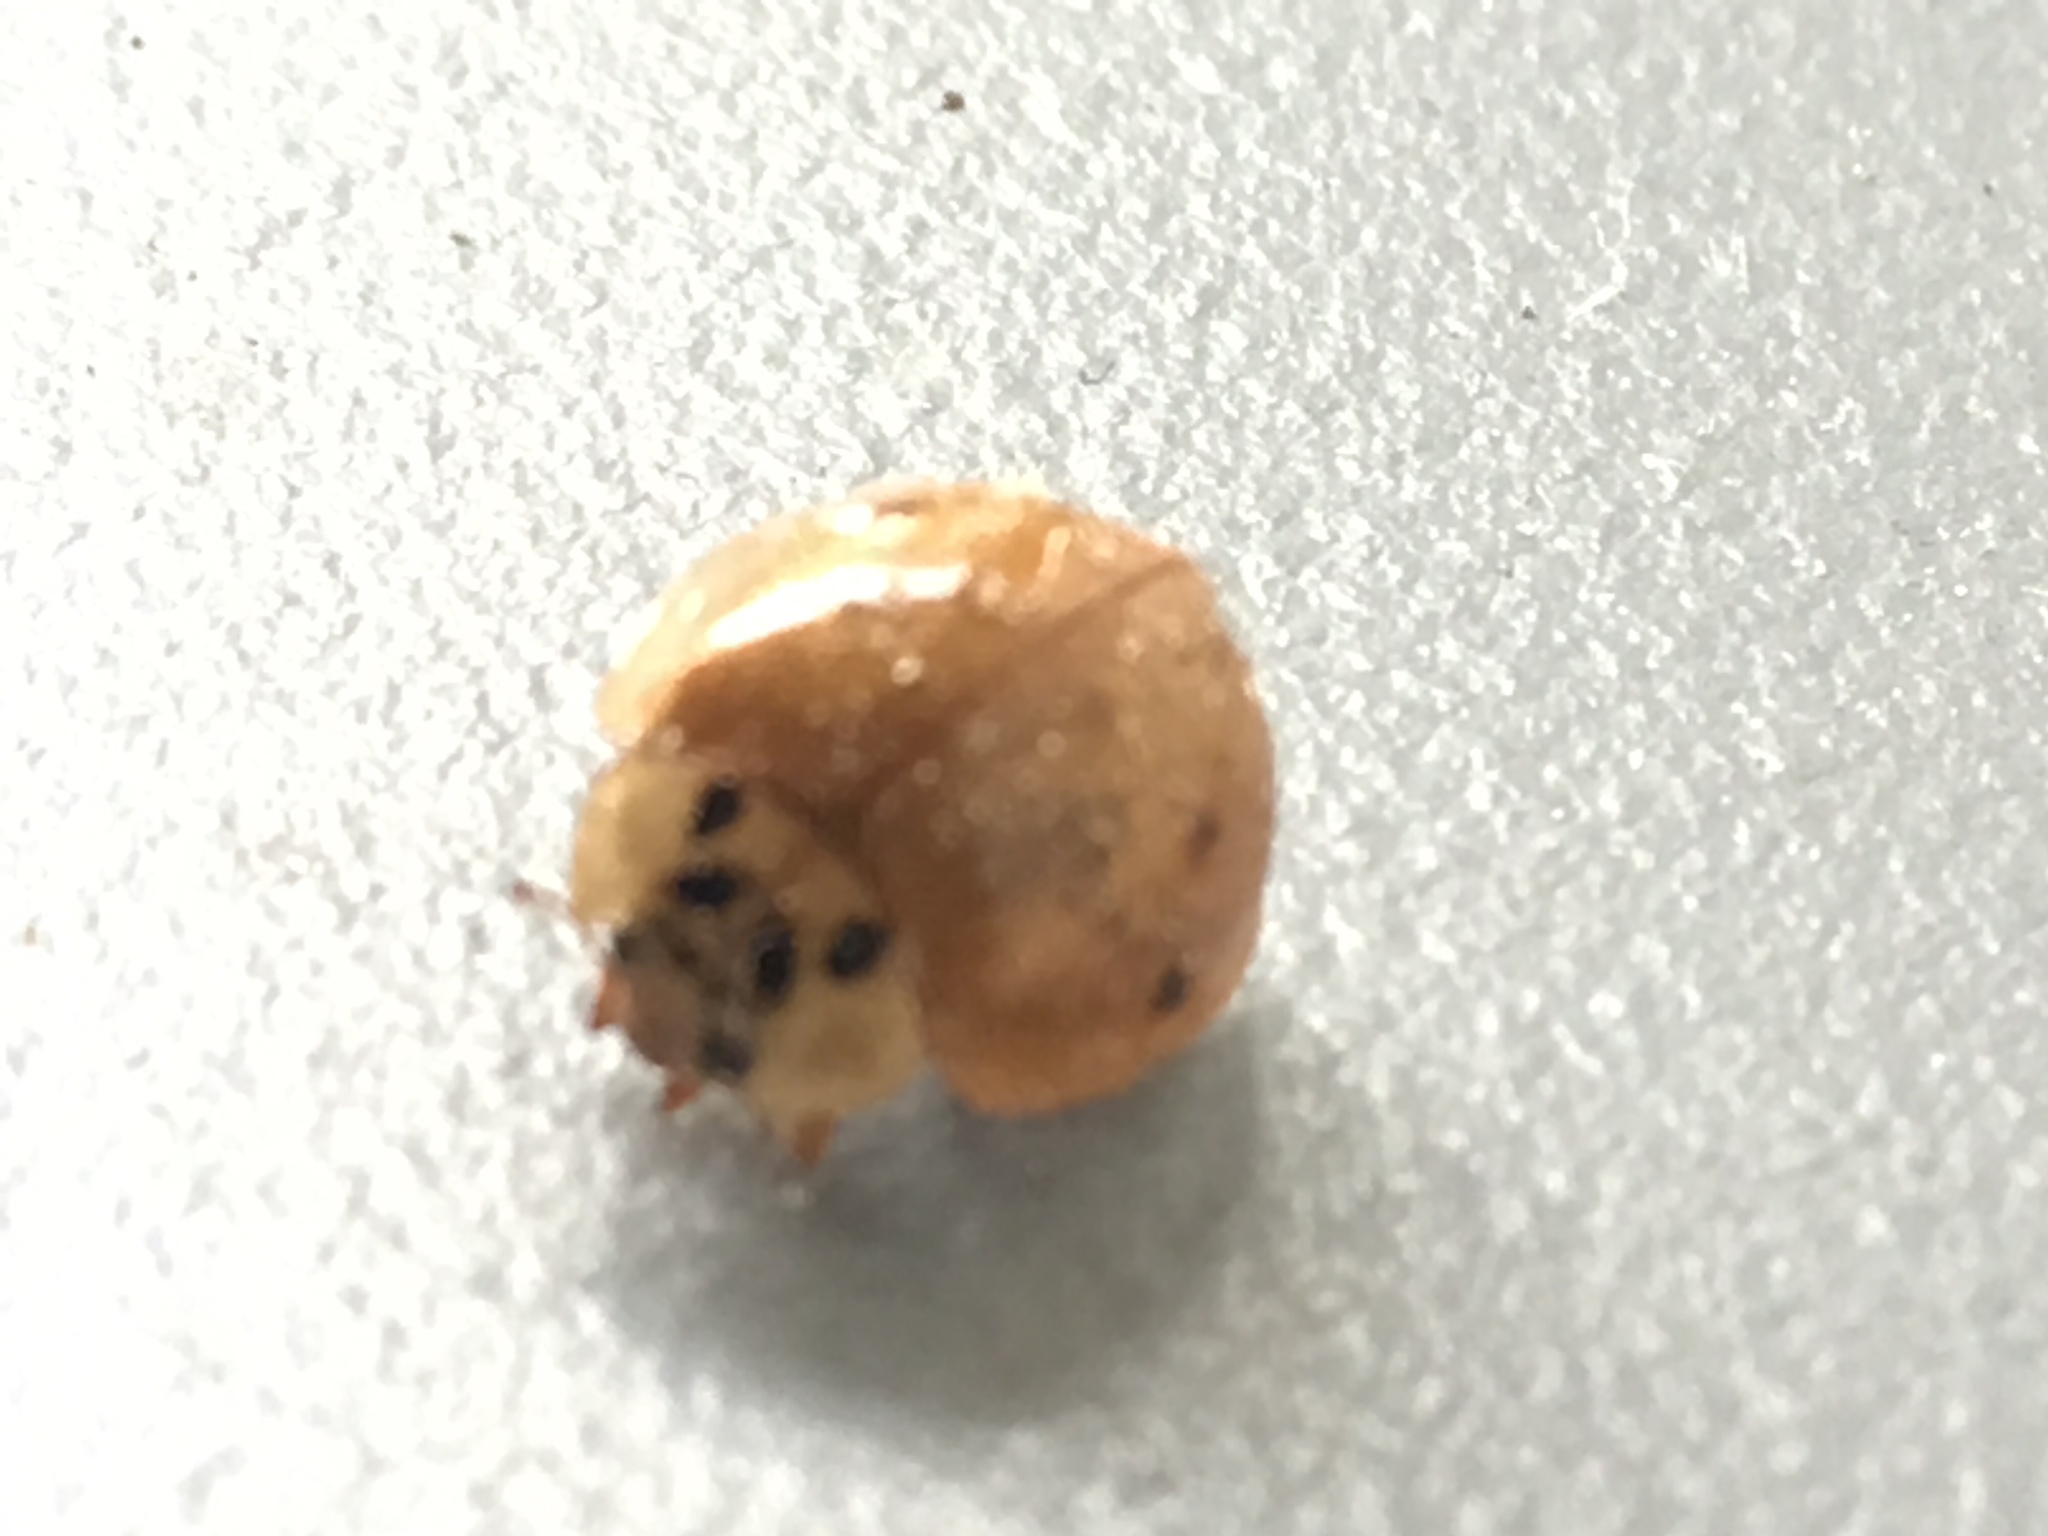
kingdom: Animalia
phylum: Arthropoda
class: Insecta
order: Coleoptera
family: Coccinellidae
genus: Harmonia
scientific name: Harmonia axyridis
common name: Harlequin ladybird
